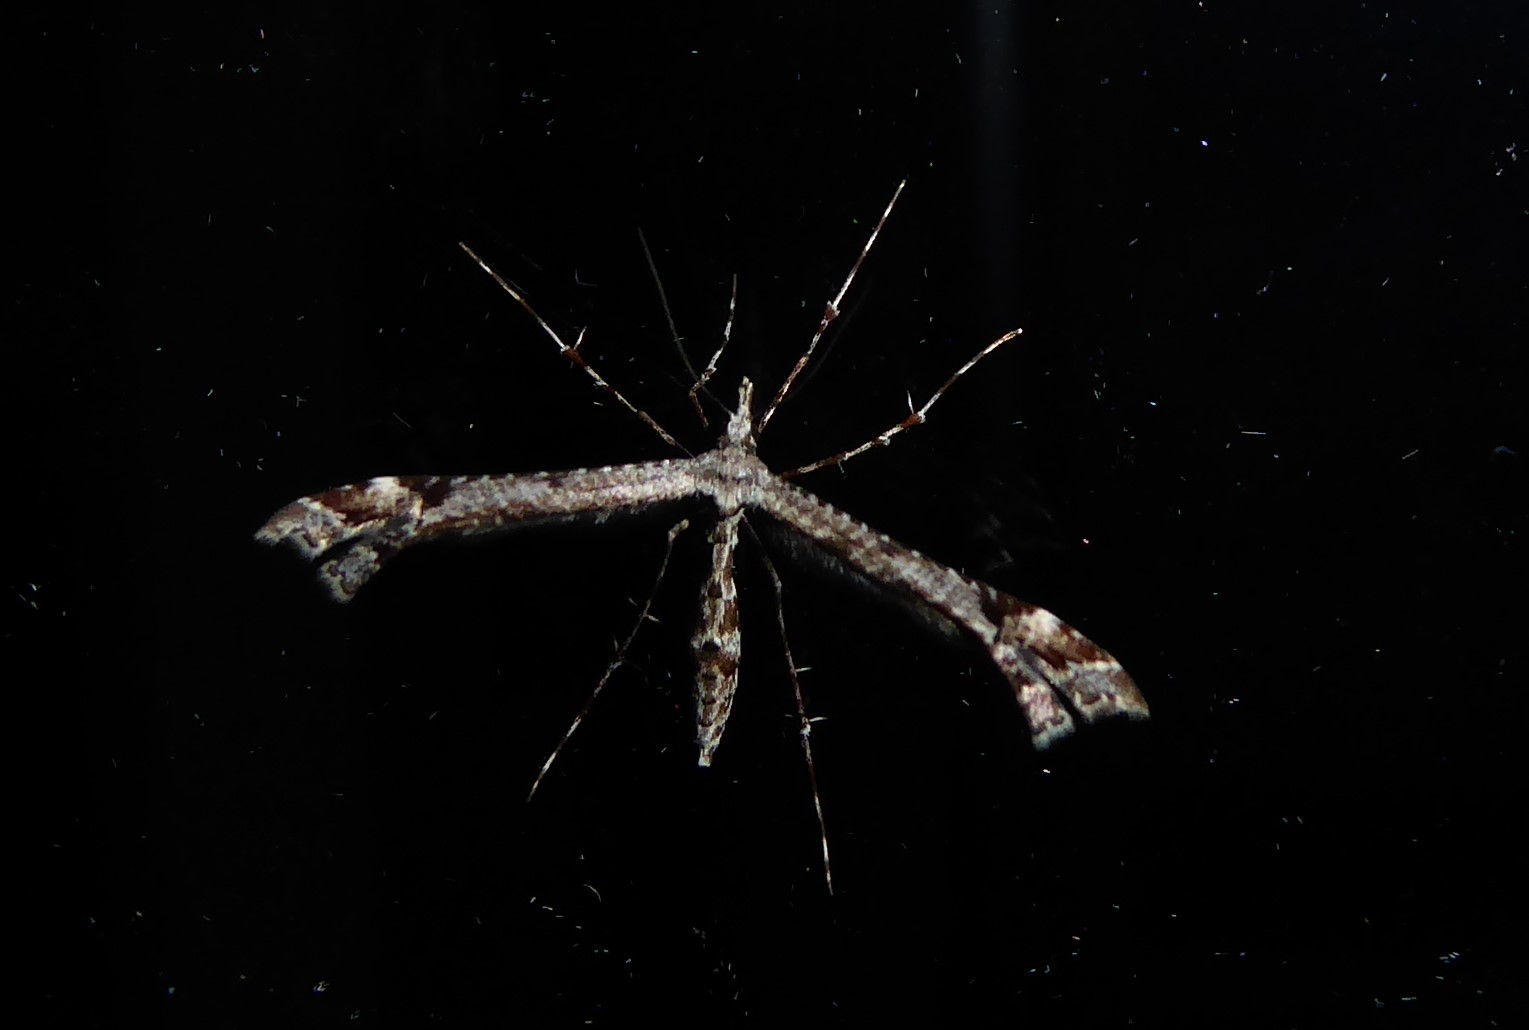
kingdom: Animalia
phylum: Arthropoda
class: Insecta
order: Lepidoptera
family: Pterophoridae
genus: Amblyptilia
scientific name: Amblyptilia repletalis
